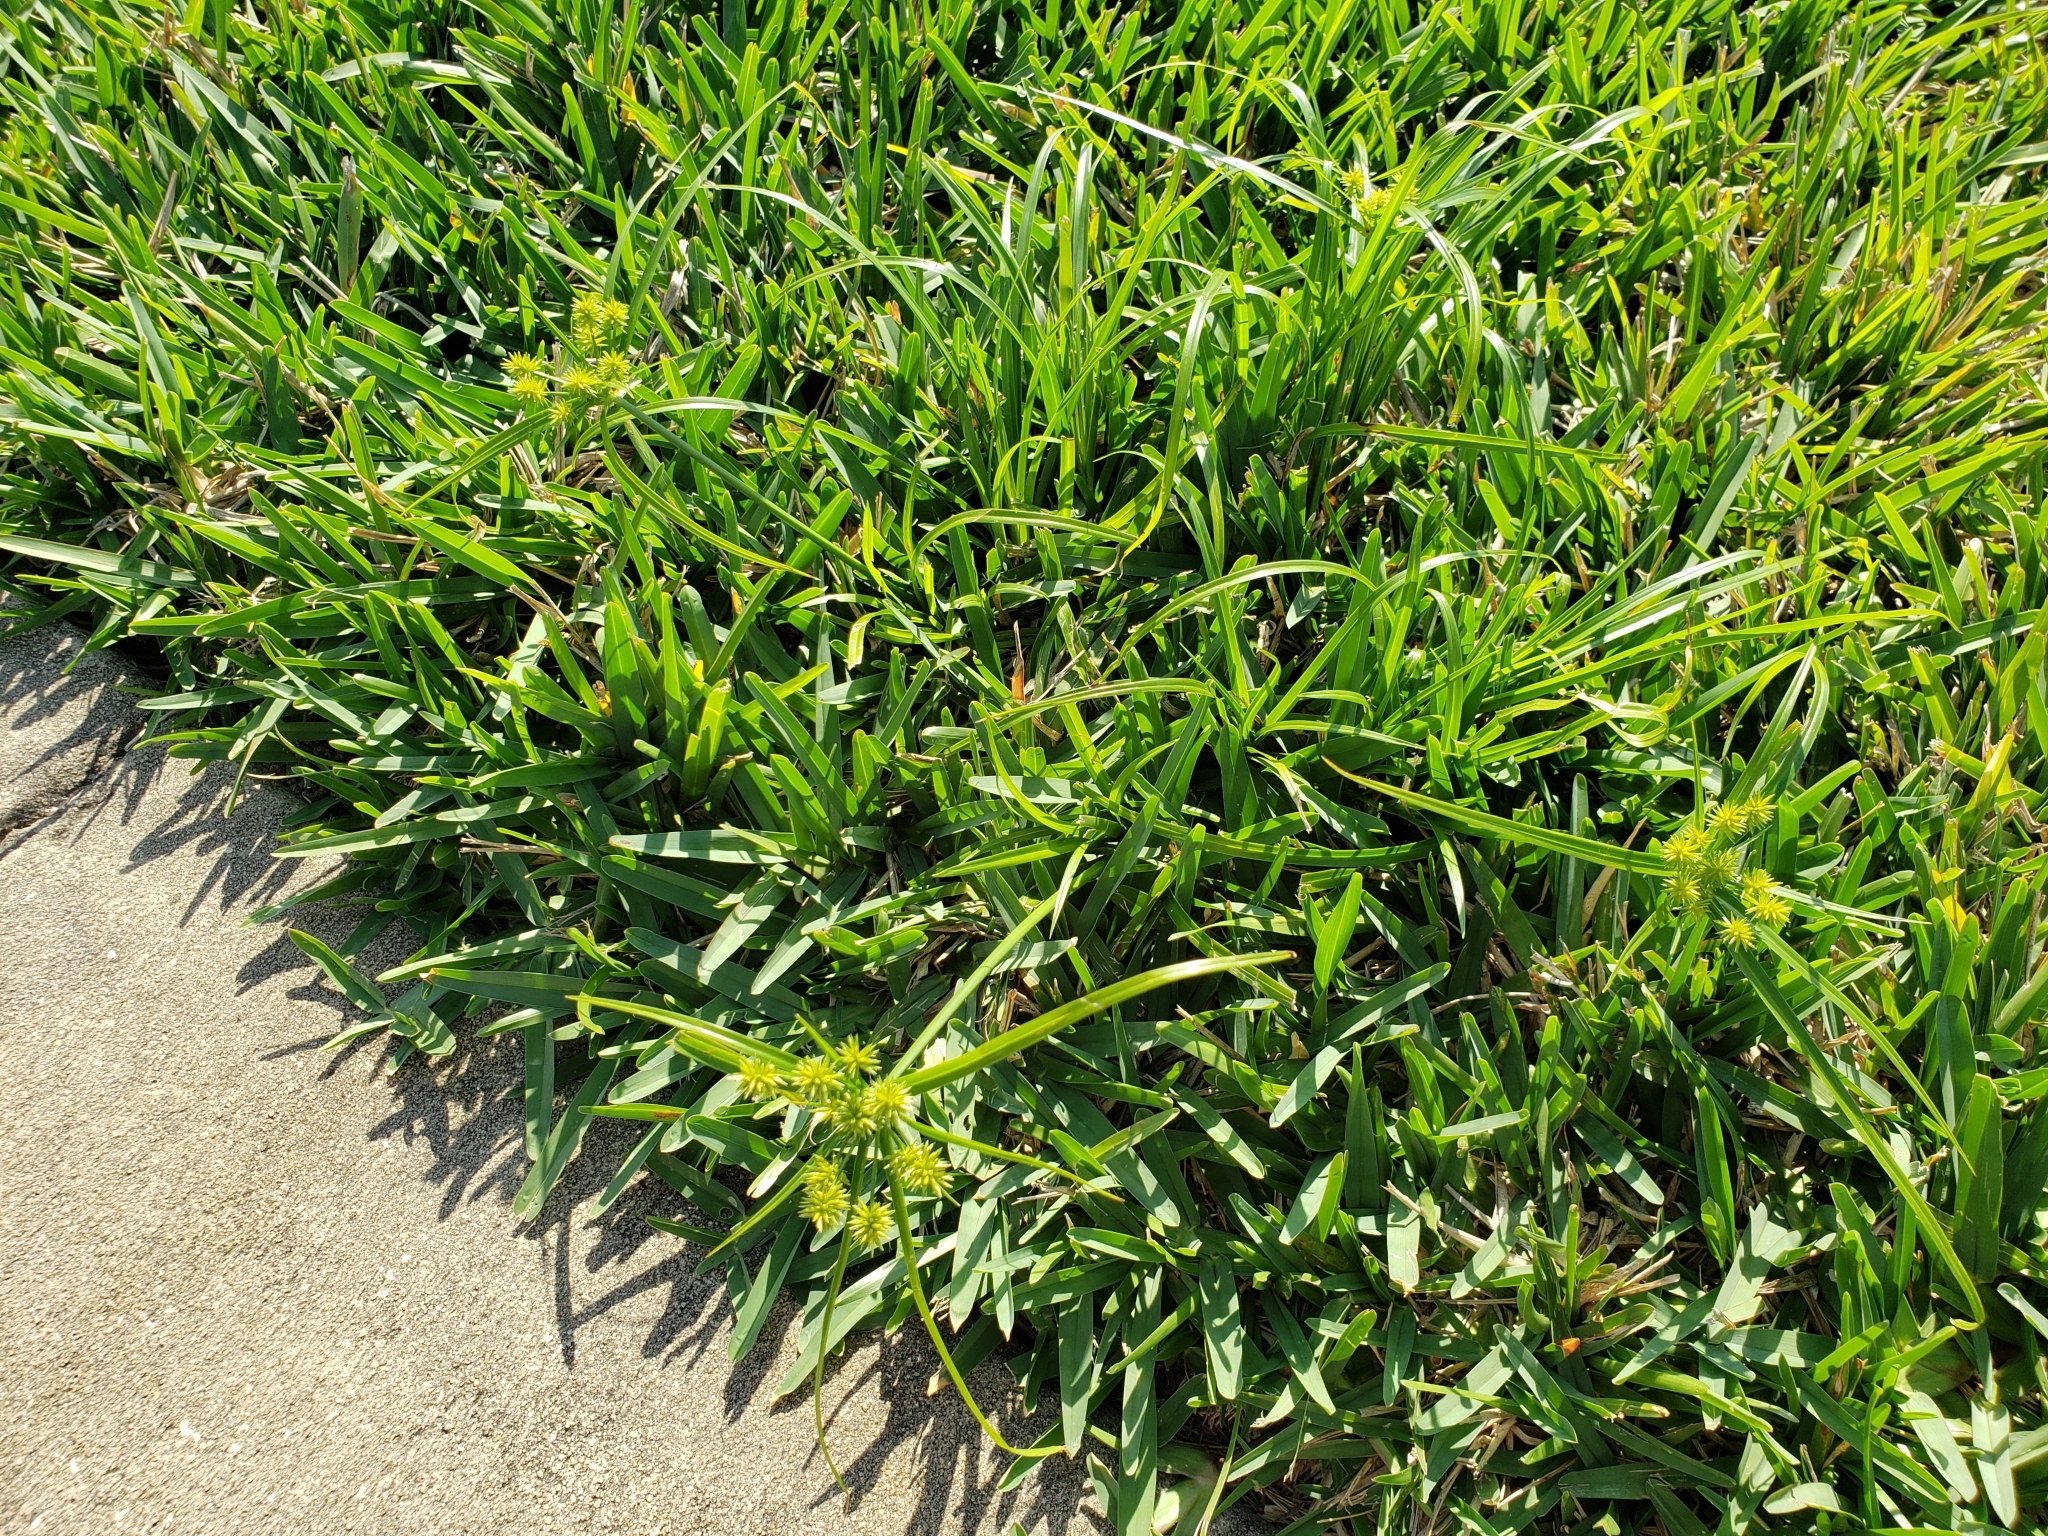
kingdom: Plantae
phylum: Tracheophyta
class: Liliopsida
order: Poales
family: Cyperaceae
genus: Cyperus
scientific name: Cyperus croceus
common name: Baldwin's flatsedge
